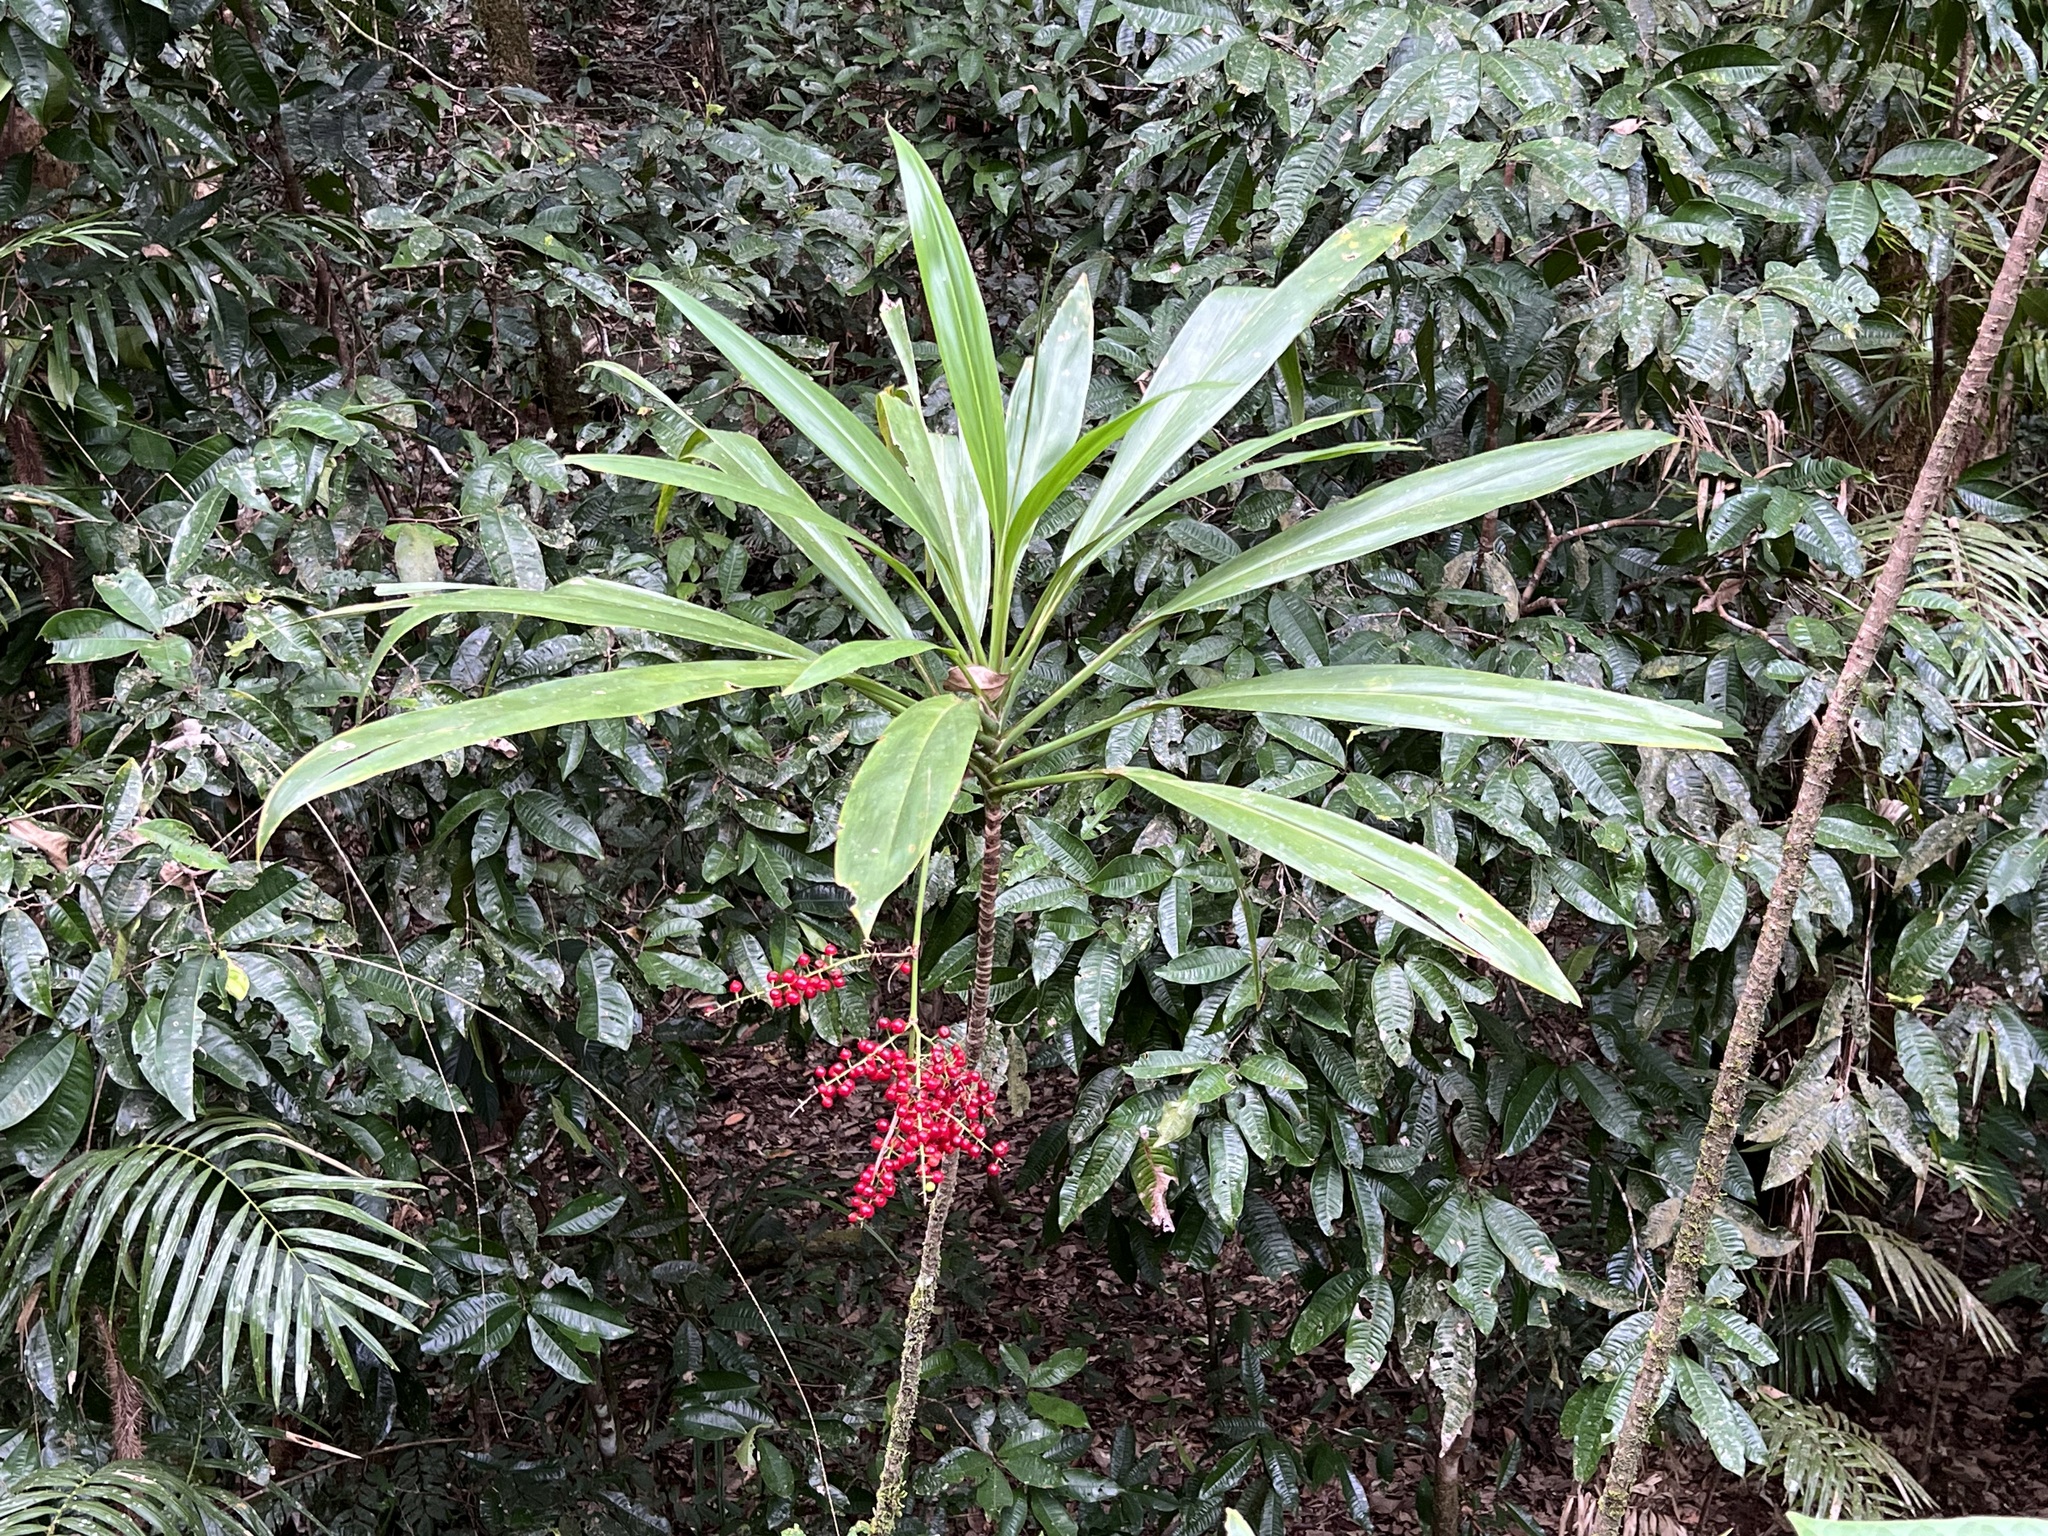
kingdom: Plantae
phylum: Tracheophyta
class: Liliopsida
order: Asparagales
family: Asparagaceae
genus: Cordyline
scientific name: Cordyline manners-suttoniae
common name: Giant palm-lily
